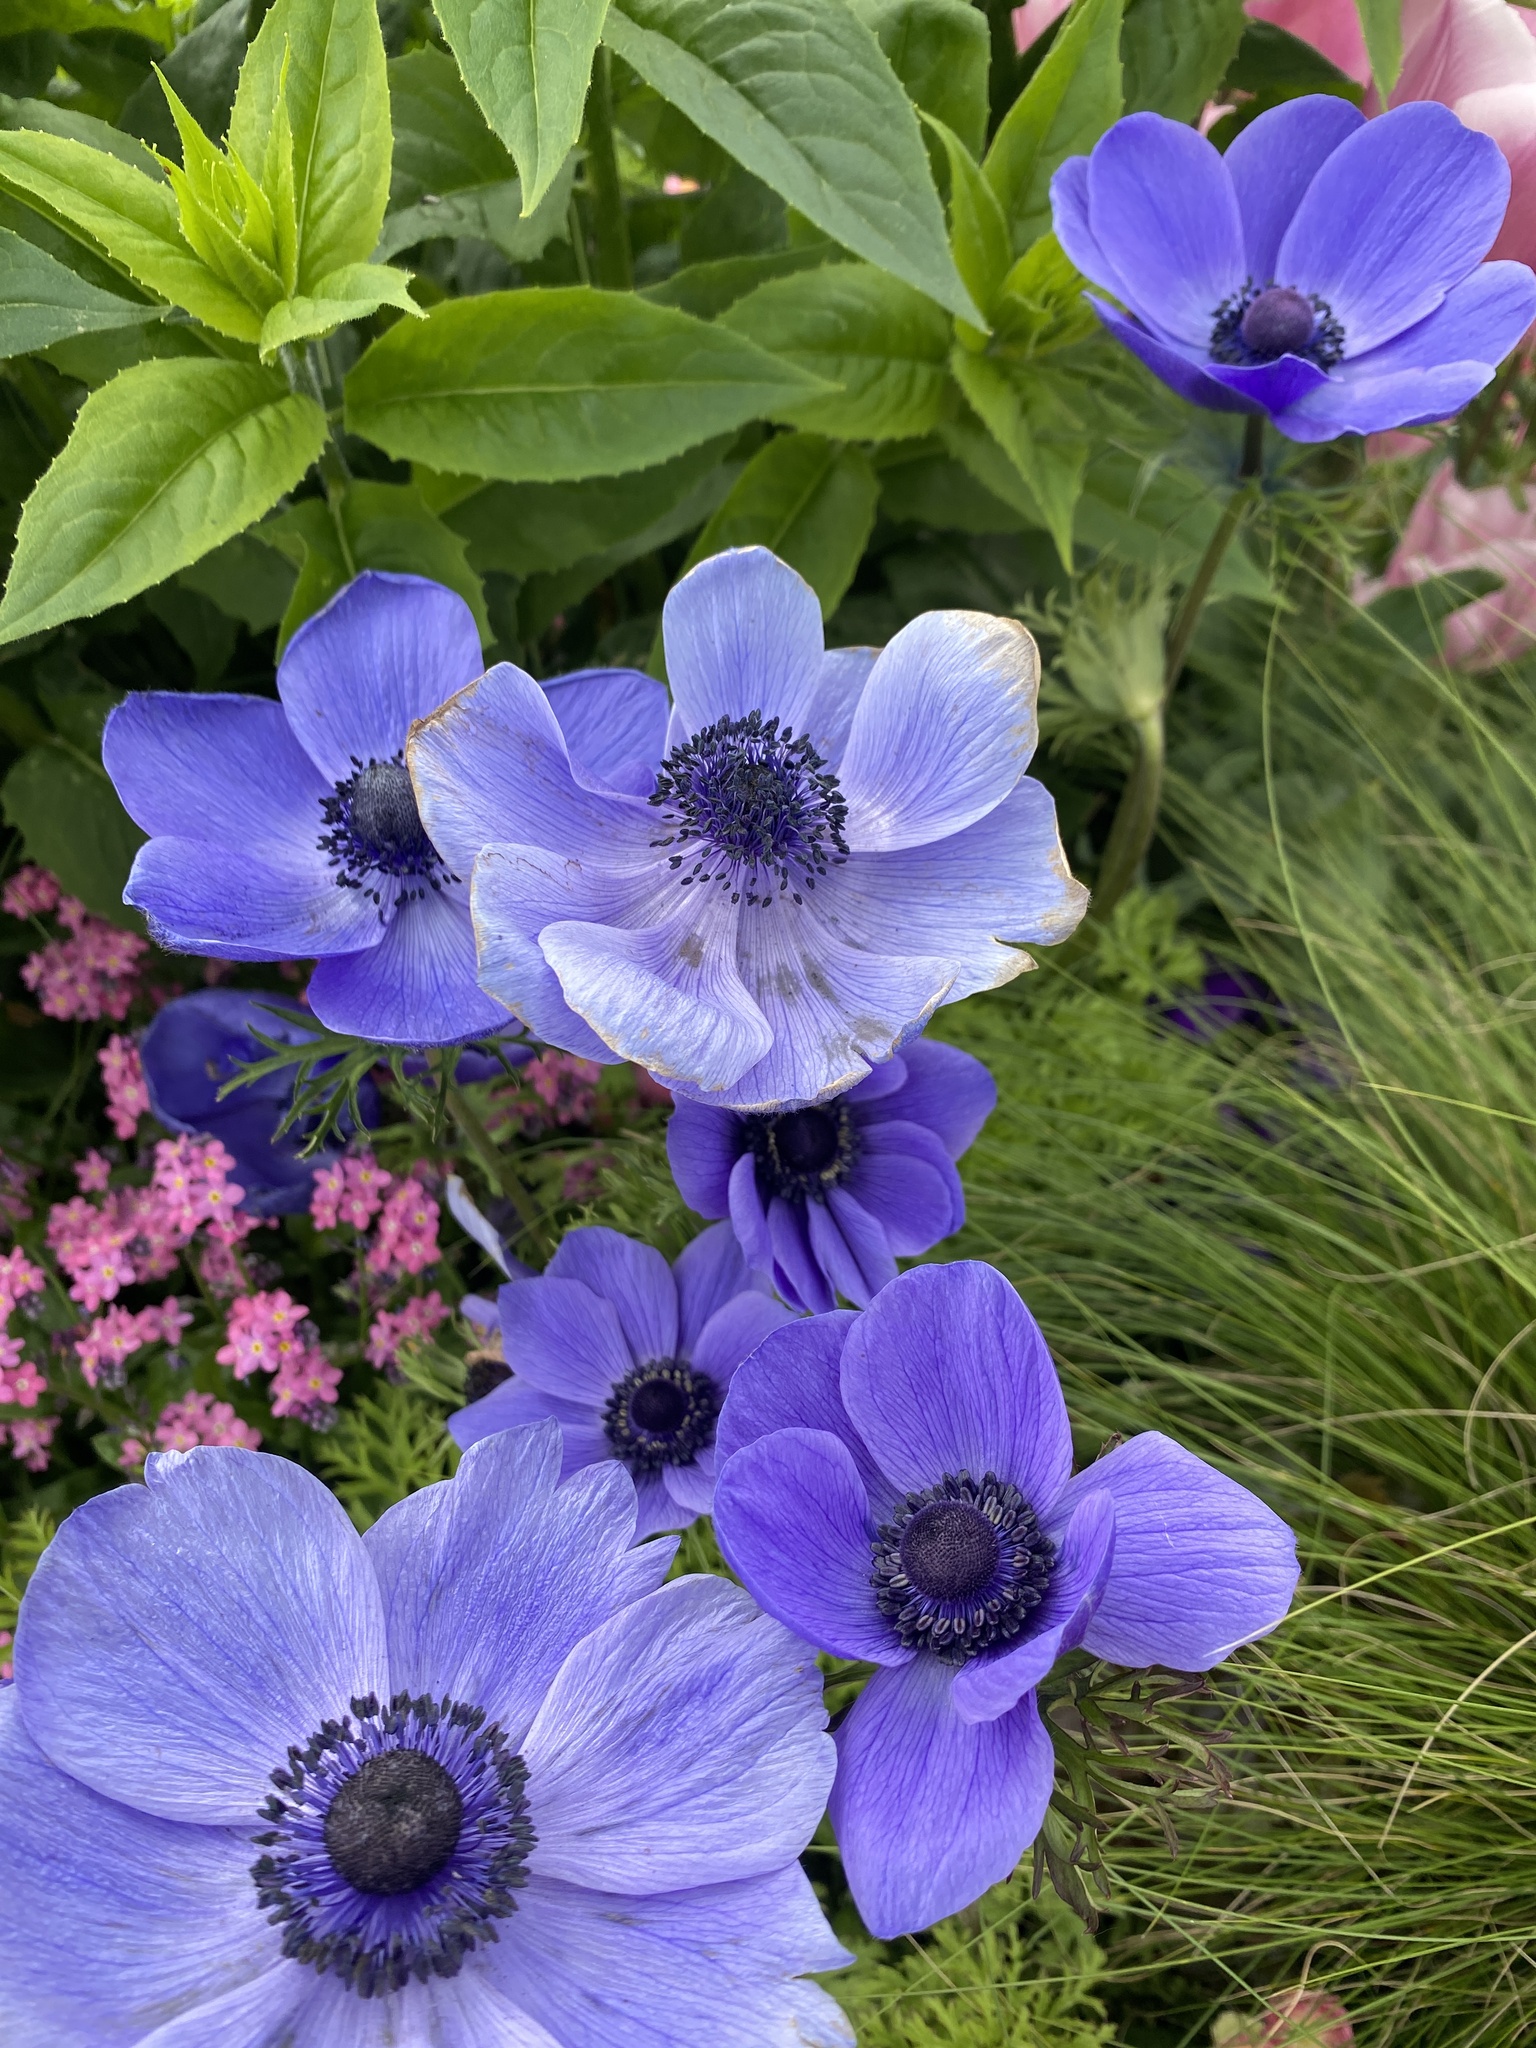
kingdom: Plantae
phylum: Tracheophyta
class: Magnoliopsida
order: Ranunculales
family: Ranunculaceae
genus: Anemone
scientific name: Anemone coronaria
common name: Poppy anemone
